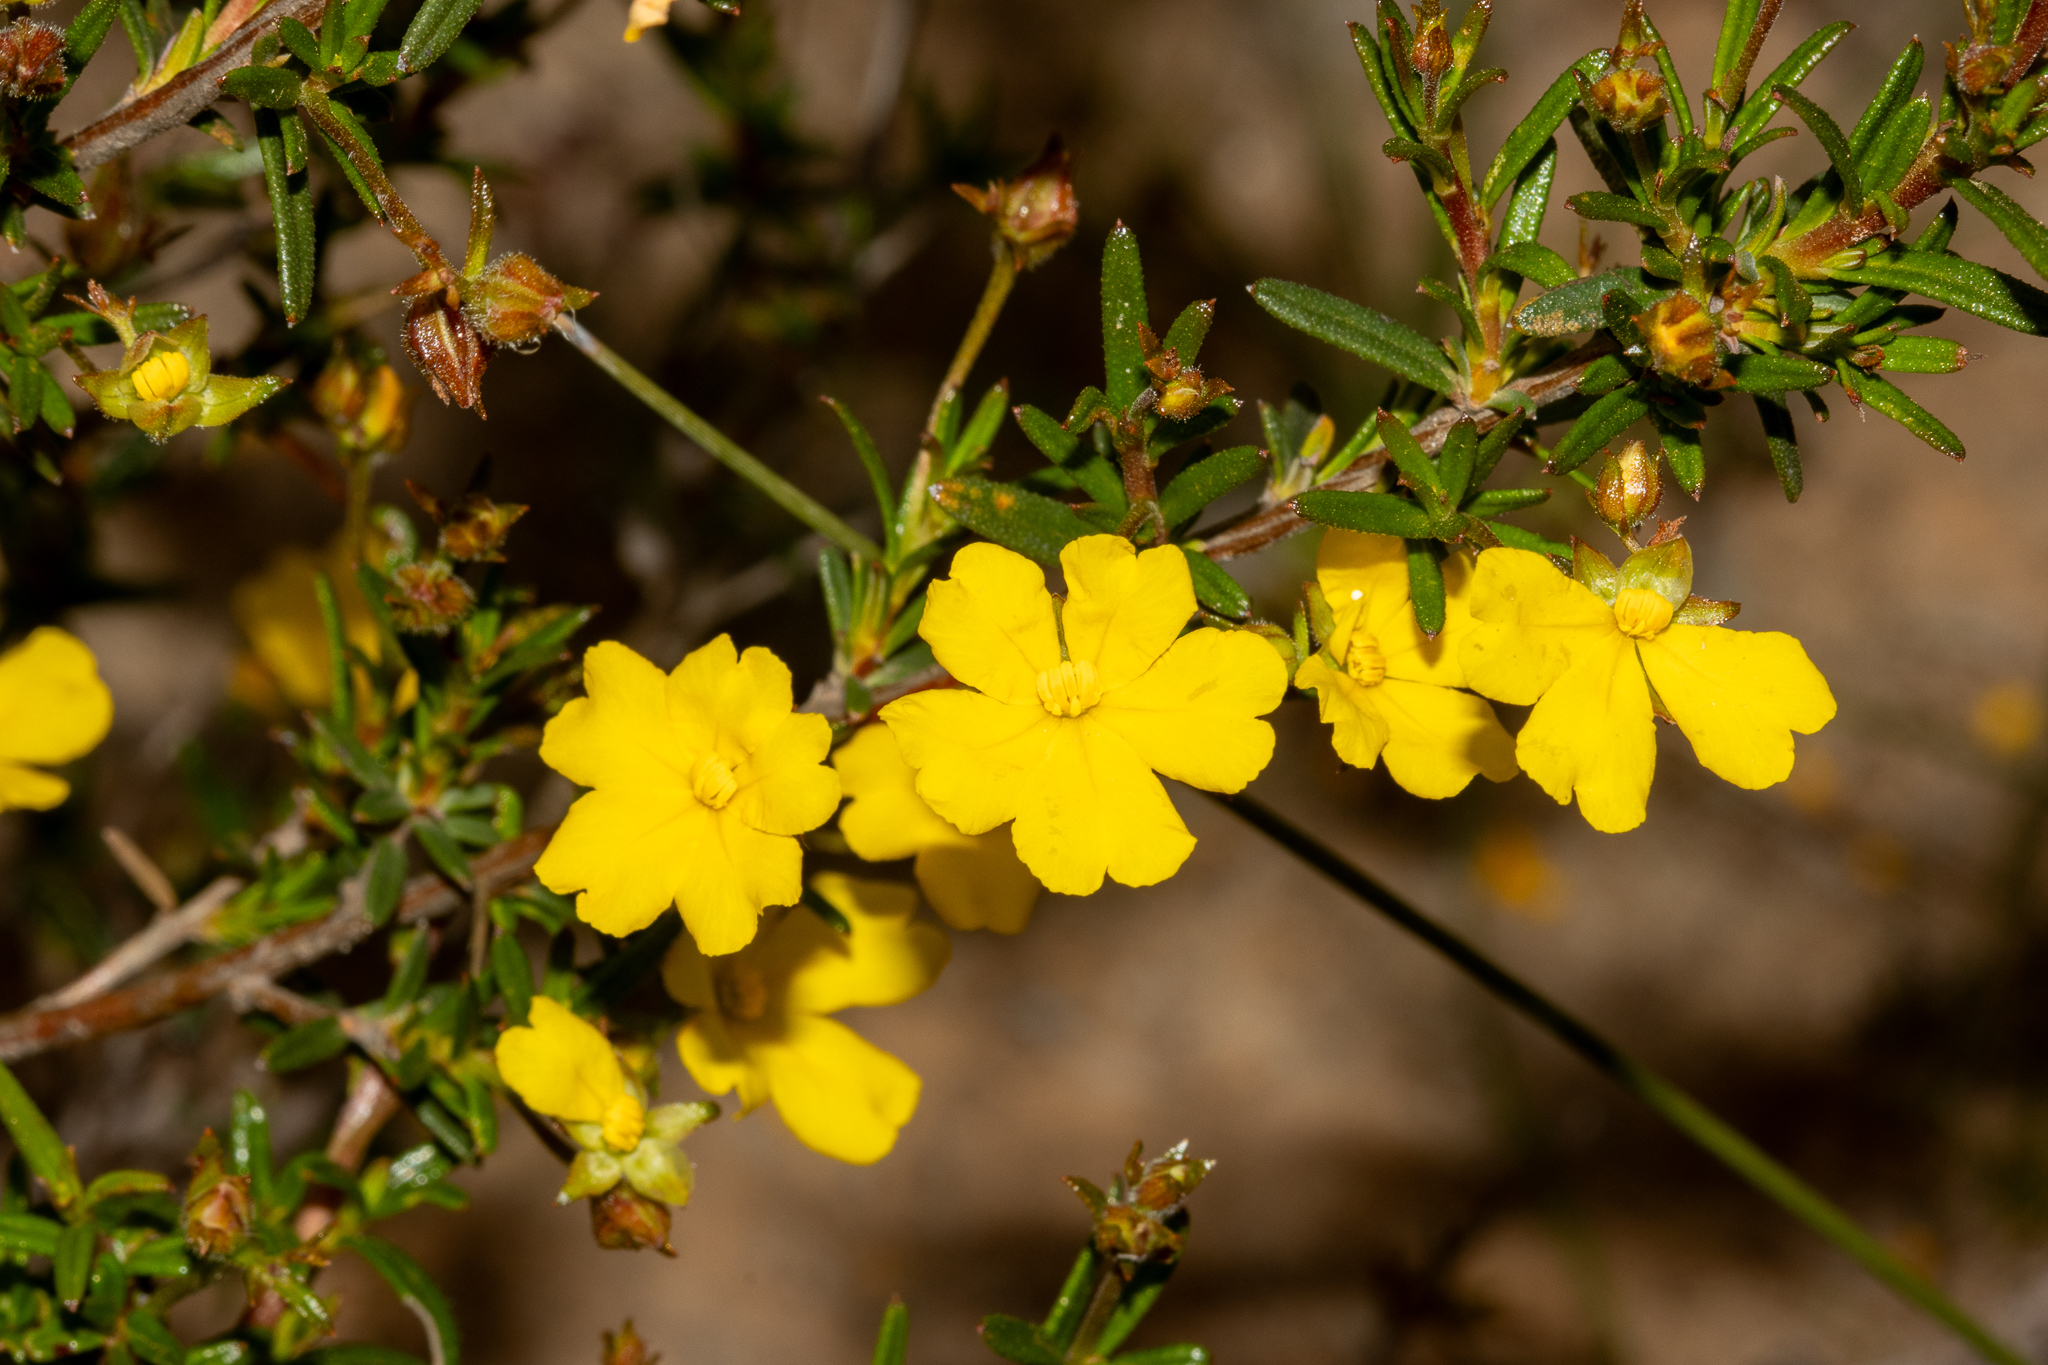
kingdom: Plantae
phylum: Tracheophyta
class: Magnoliopsida
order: Dilleniales
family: Dilleniaceae
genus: Hibbertia
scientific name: Hibbertia prolata
